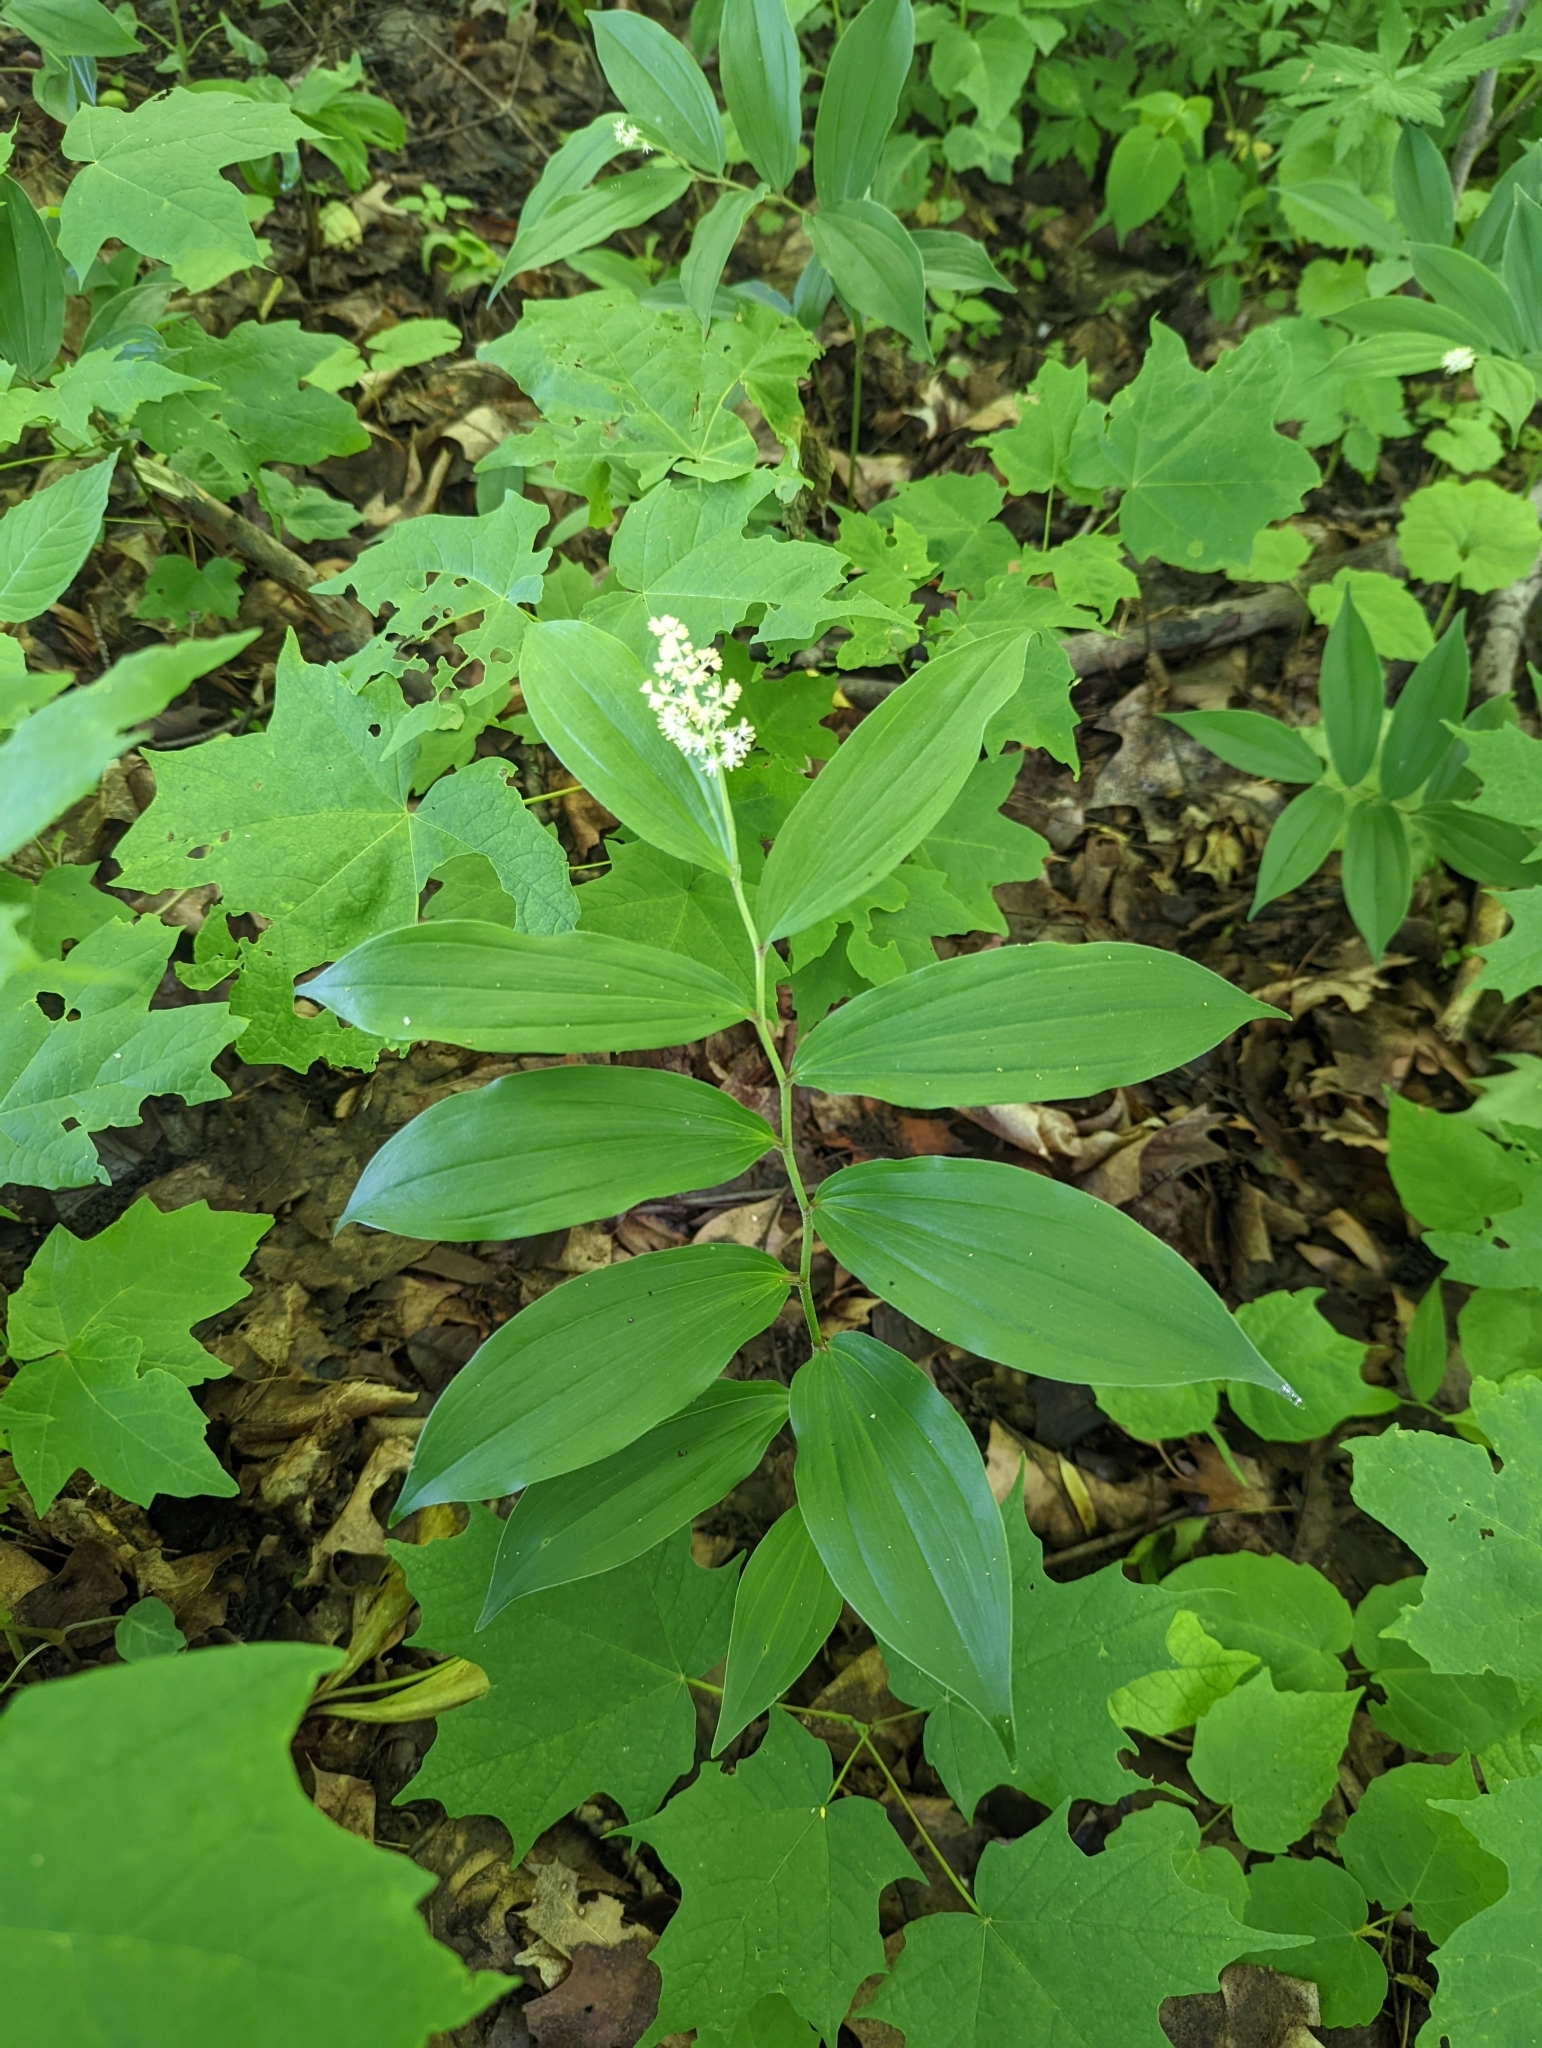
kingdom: Plantae
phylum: Tracheophyta
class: Liliopsida
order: Asparagales
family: Asparagaceae
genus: Maianthemum
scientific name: Maianthemum racemosum
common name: False spikenard
